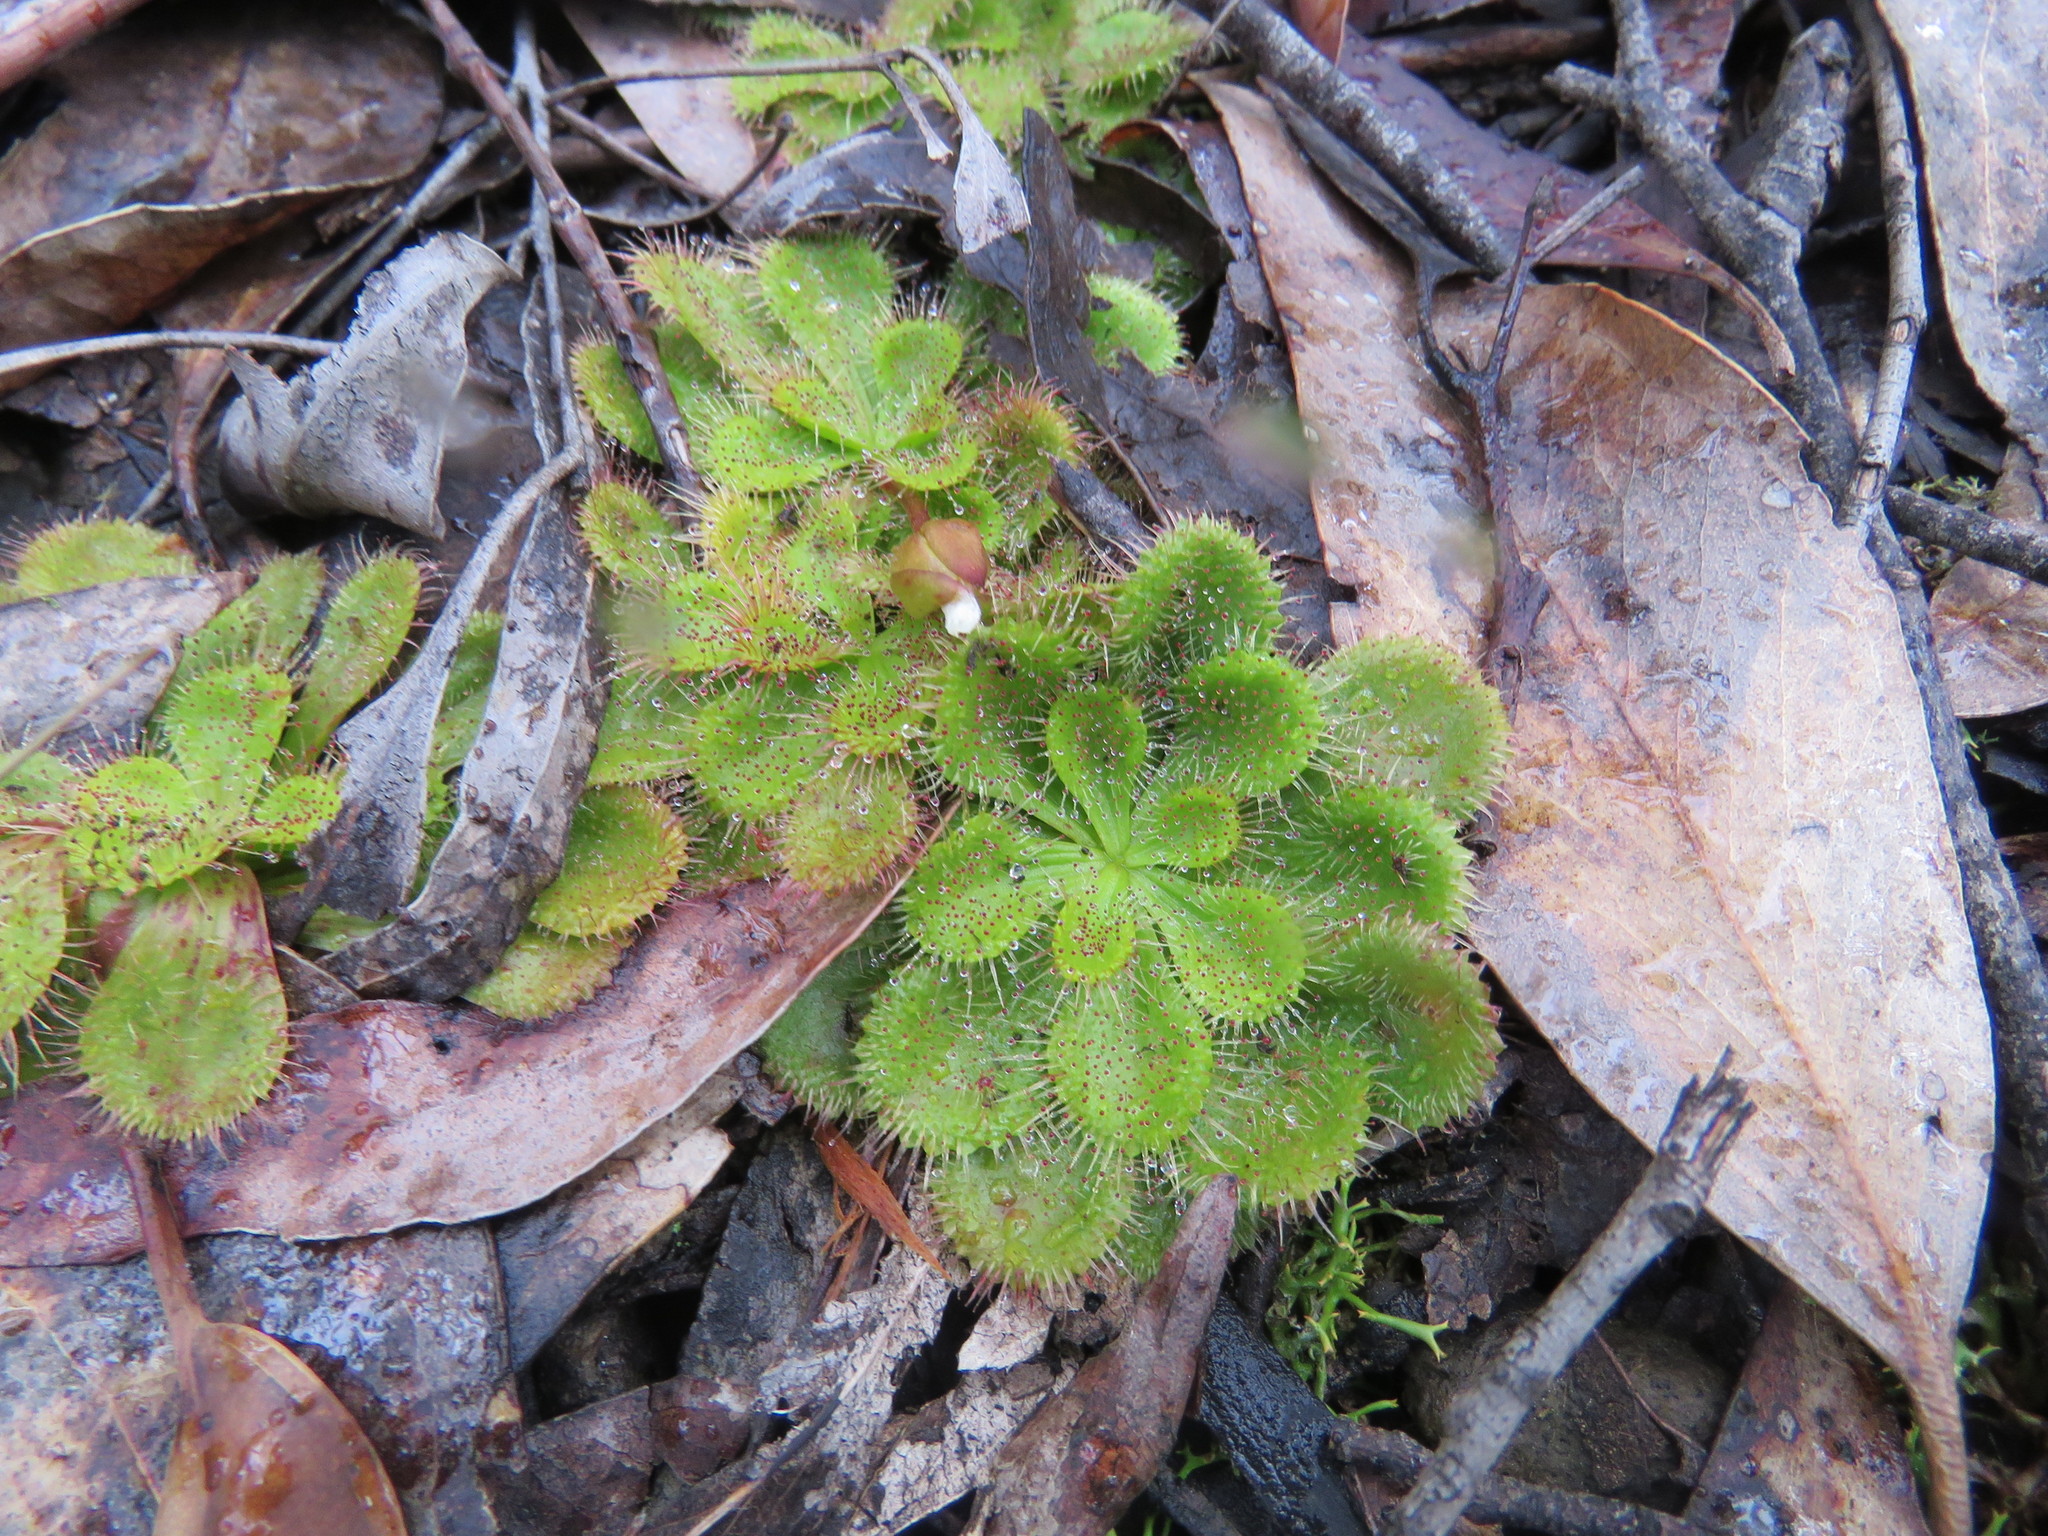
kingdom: Plantae
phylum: Tracheophyta
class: Magnoliopsida
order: Caryophyllales
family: Droseraceae
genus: Drosera
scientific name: Drosera aberrans
